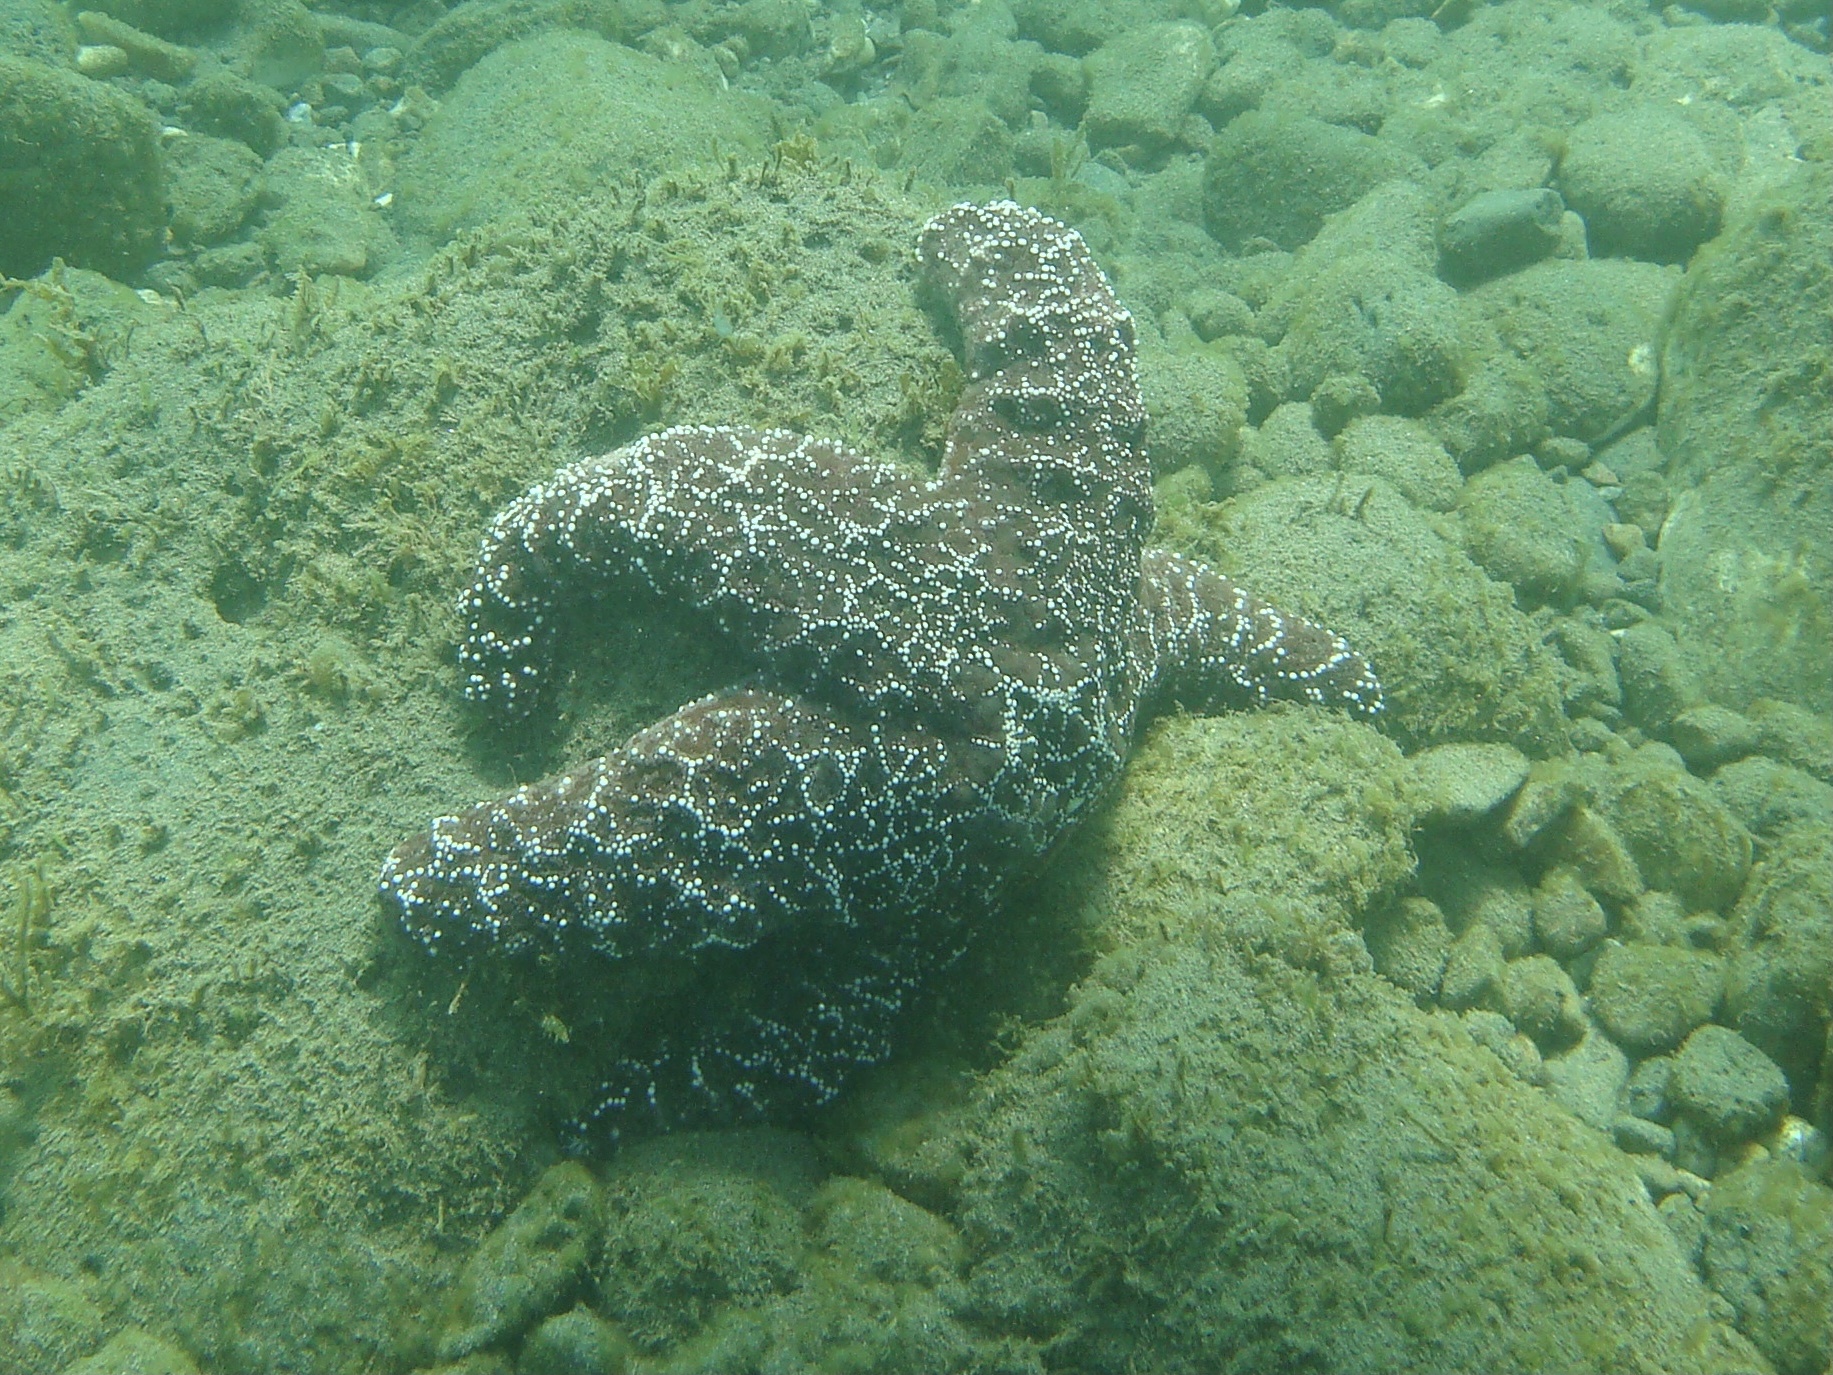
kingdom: Animalia
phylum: Echinodermata
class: Asteroidea
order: Forcipulatida
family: Asteriidae
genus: Pisaster
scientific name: Pisaster ochraceus
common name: Ochre stars
